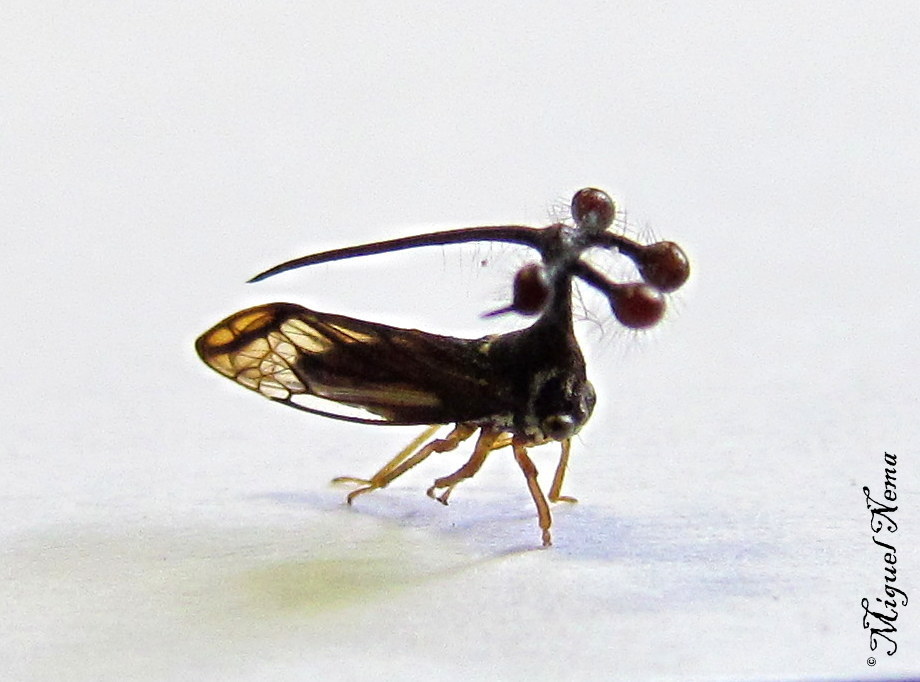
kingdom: Animalia
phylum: Arthropoda
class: Insecta
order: Hemiptera
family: Membracidae
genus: Bocydium
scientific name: Bocydium globulare
